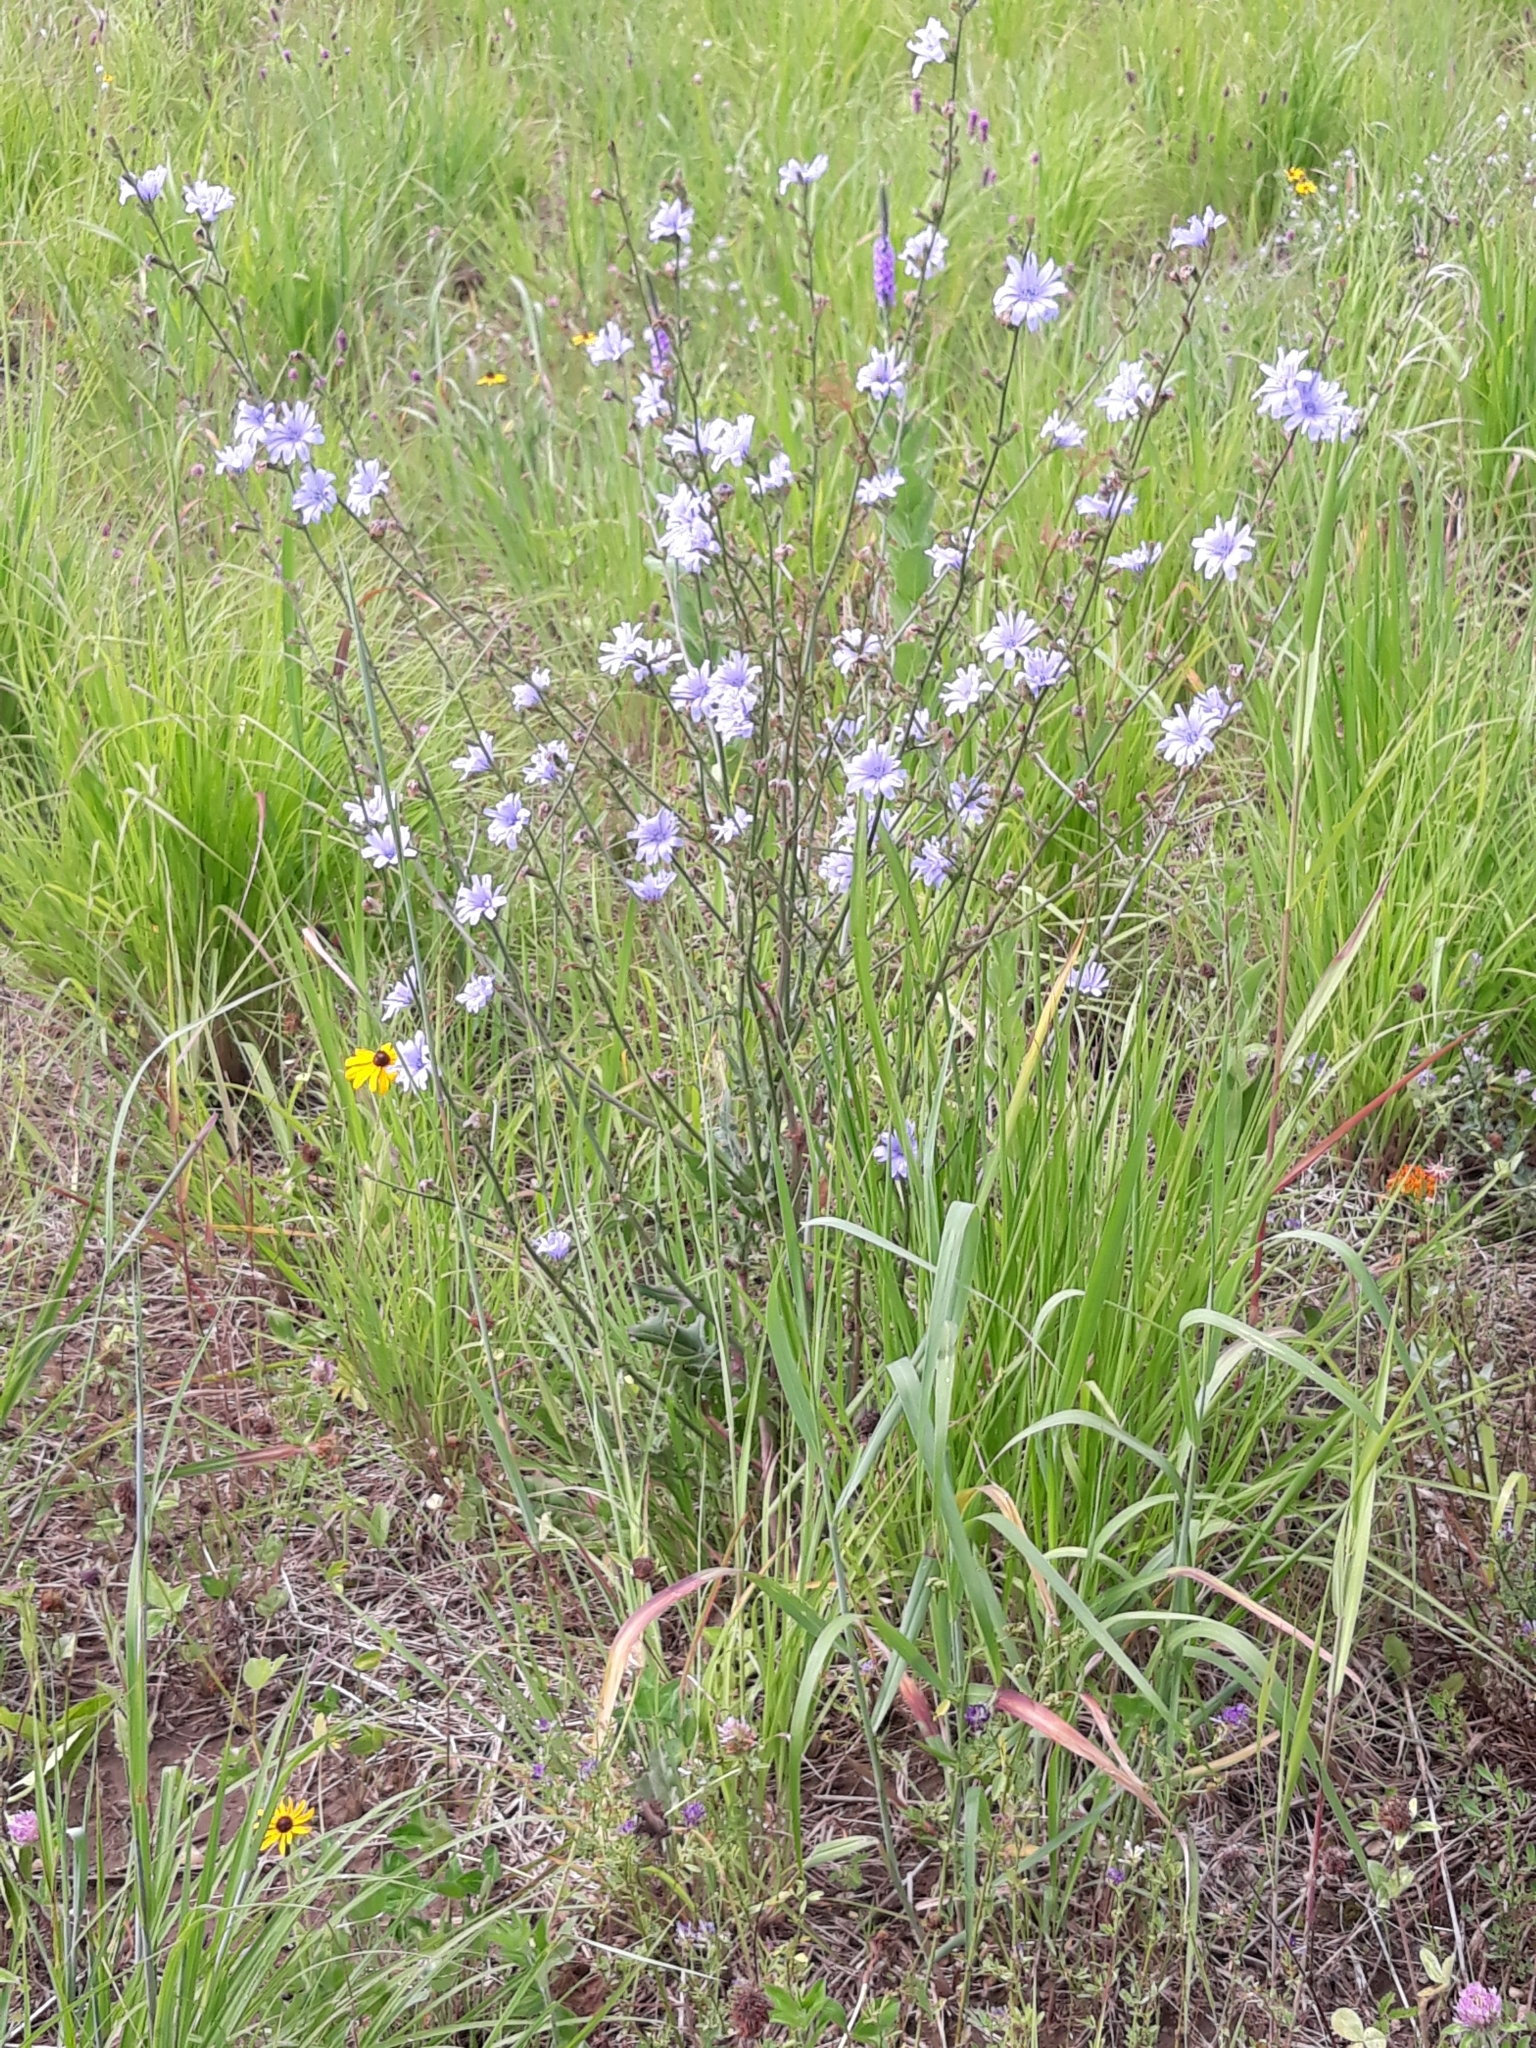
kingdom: Plantae
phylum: Tracheophyta
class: Magnoliopsida
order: Asterales
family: Asteraceae
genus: Cichorium
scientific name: Cichorium intybus
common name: Chicory
